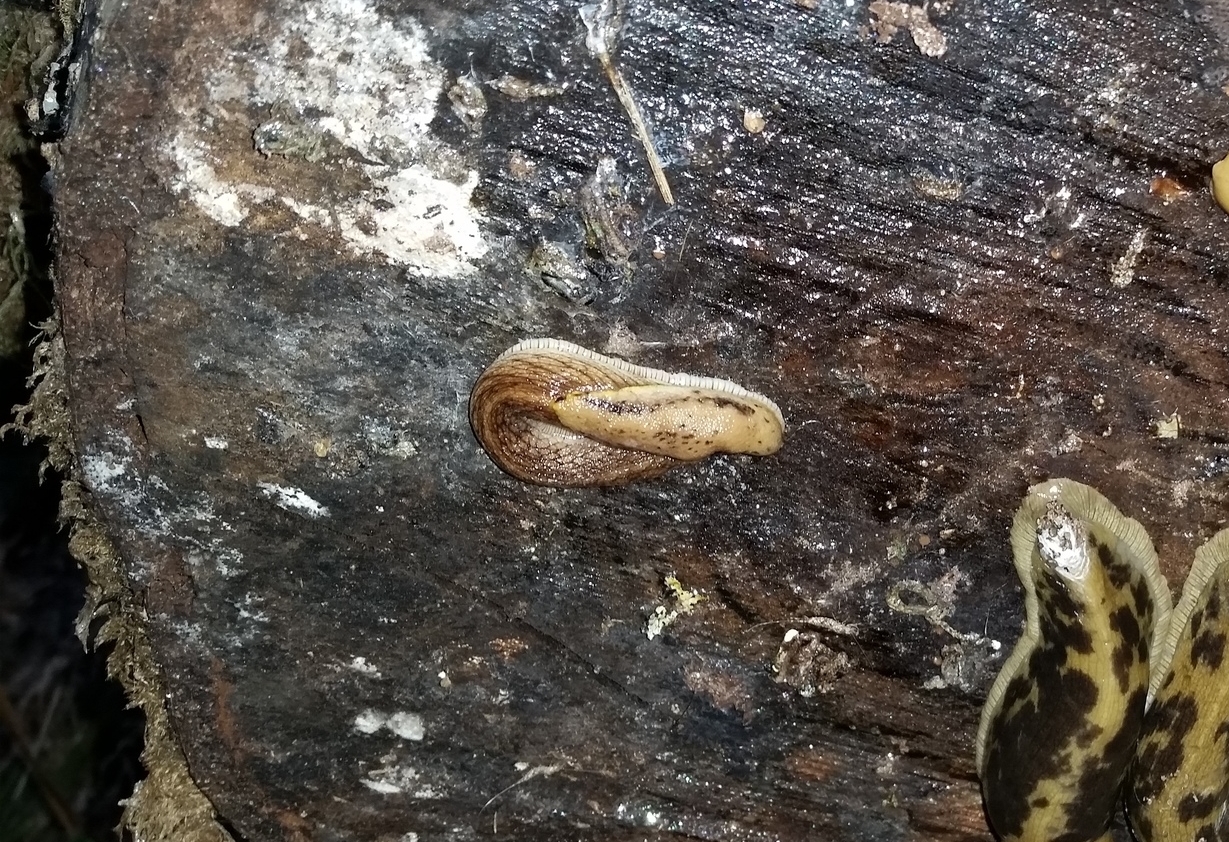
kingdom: Animalia
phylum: Mollusca
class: Gastropoda
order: Stylommatophora
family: Ariolimacidae
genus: Prophysaon
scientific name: Prophysaon andersonii
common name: Reticulate taildropper
